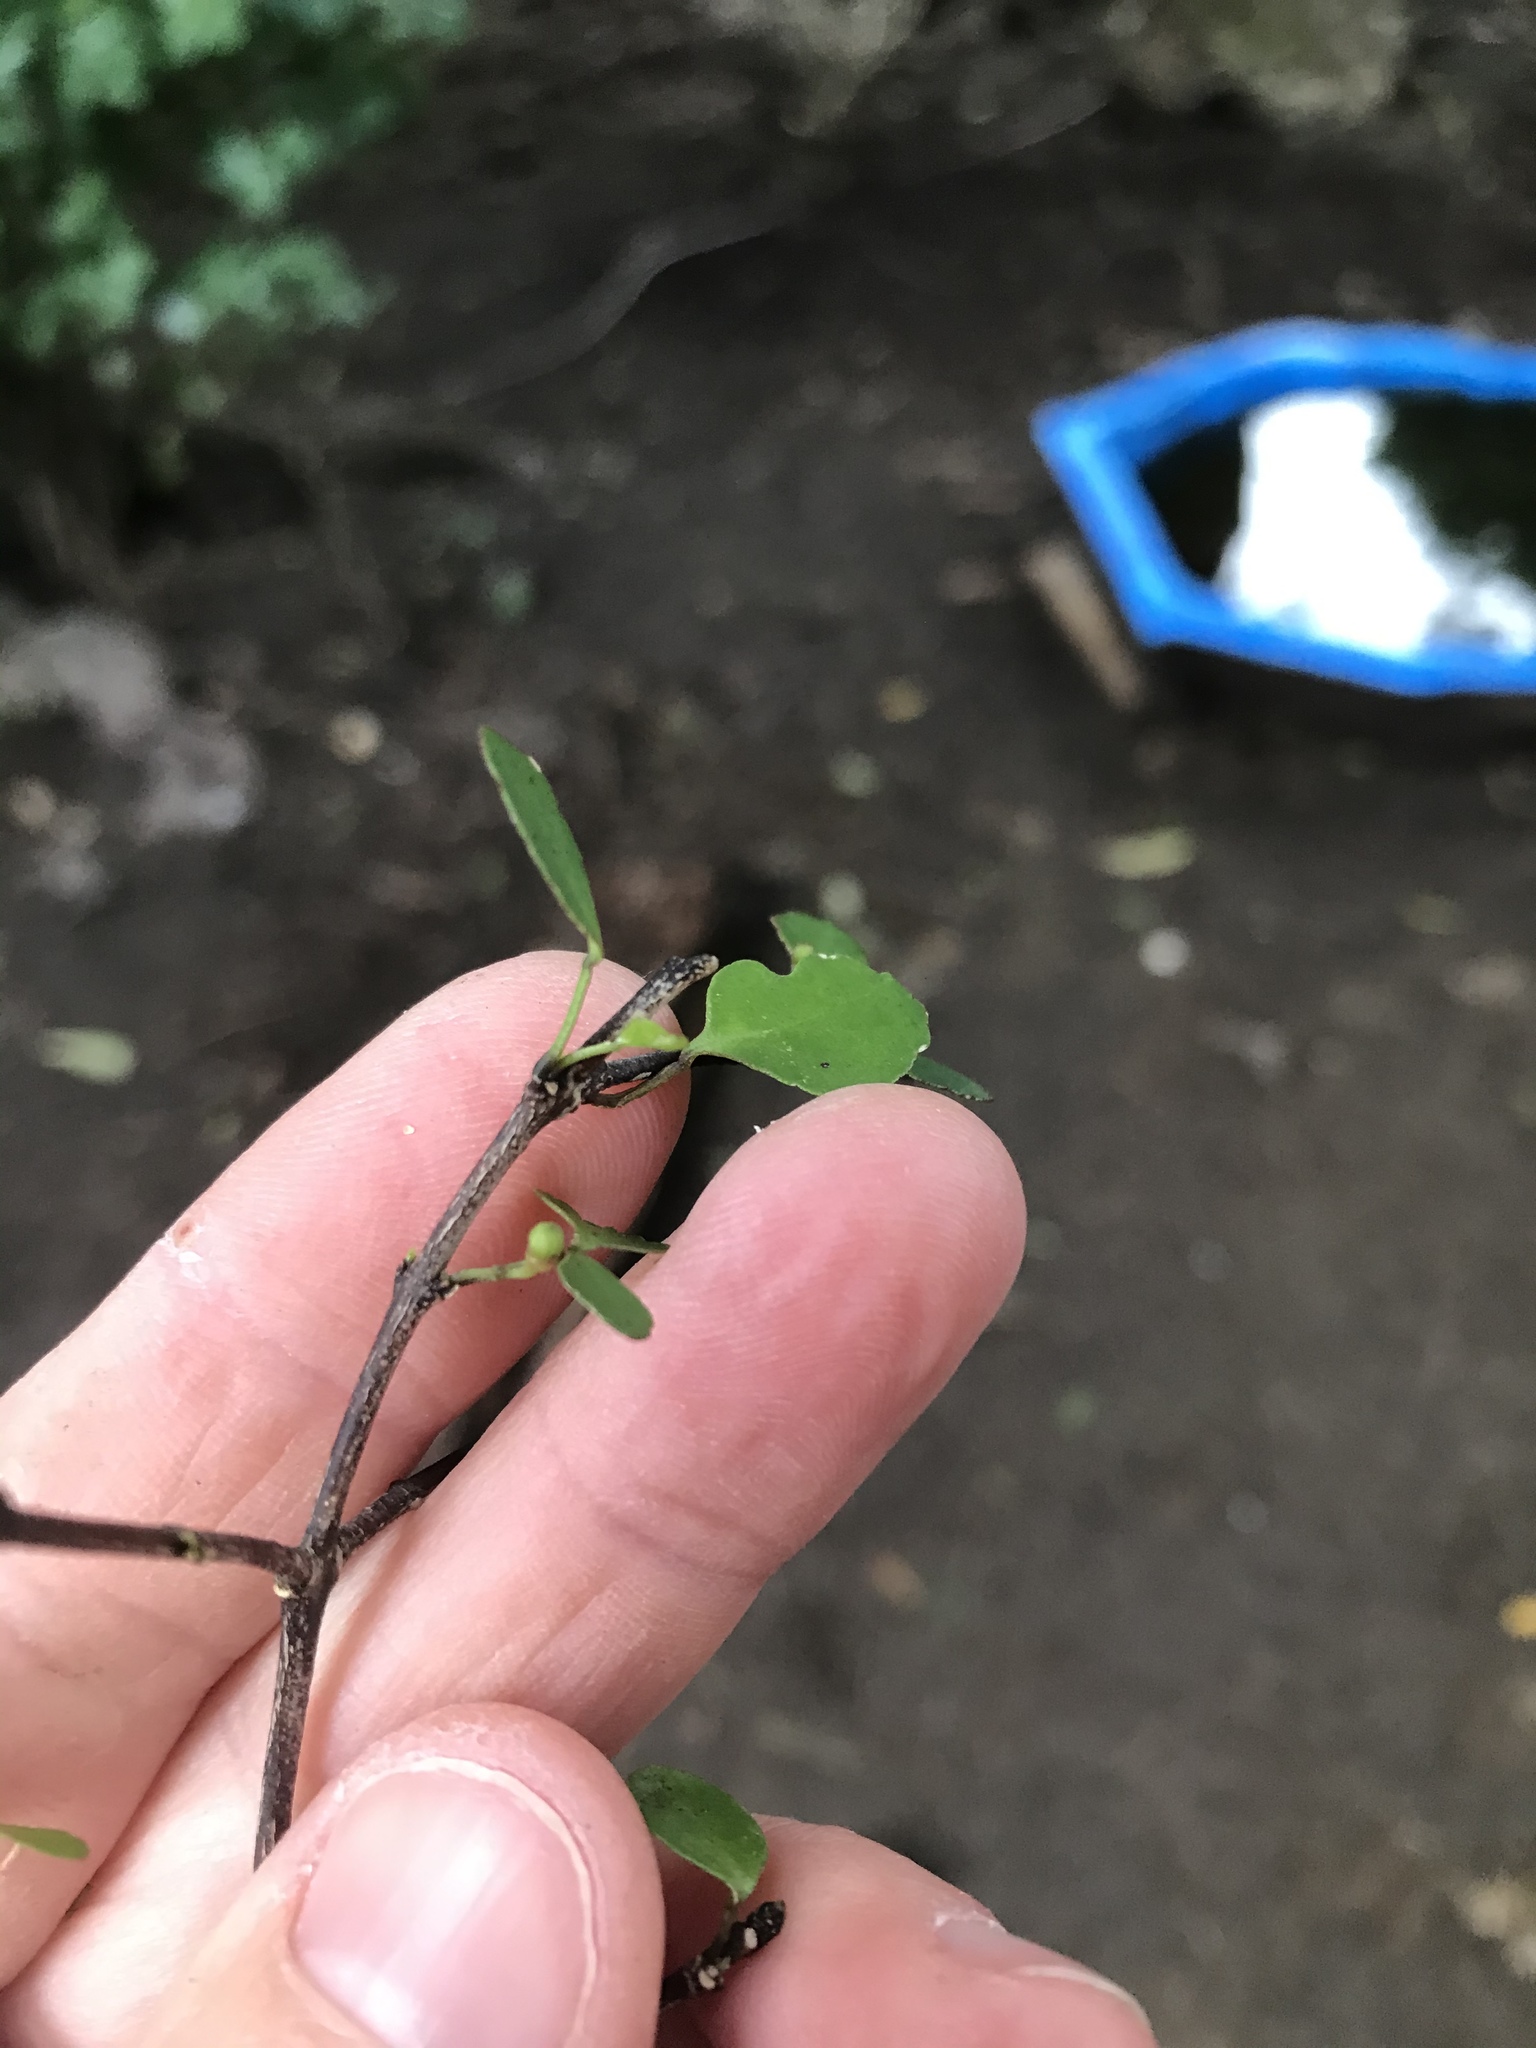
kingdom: Plantae
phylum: Tracheophyta
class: Magnoliopsida
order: Sapindales
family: Rutaceae
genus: Melicope
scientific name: Melicope simplex
